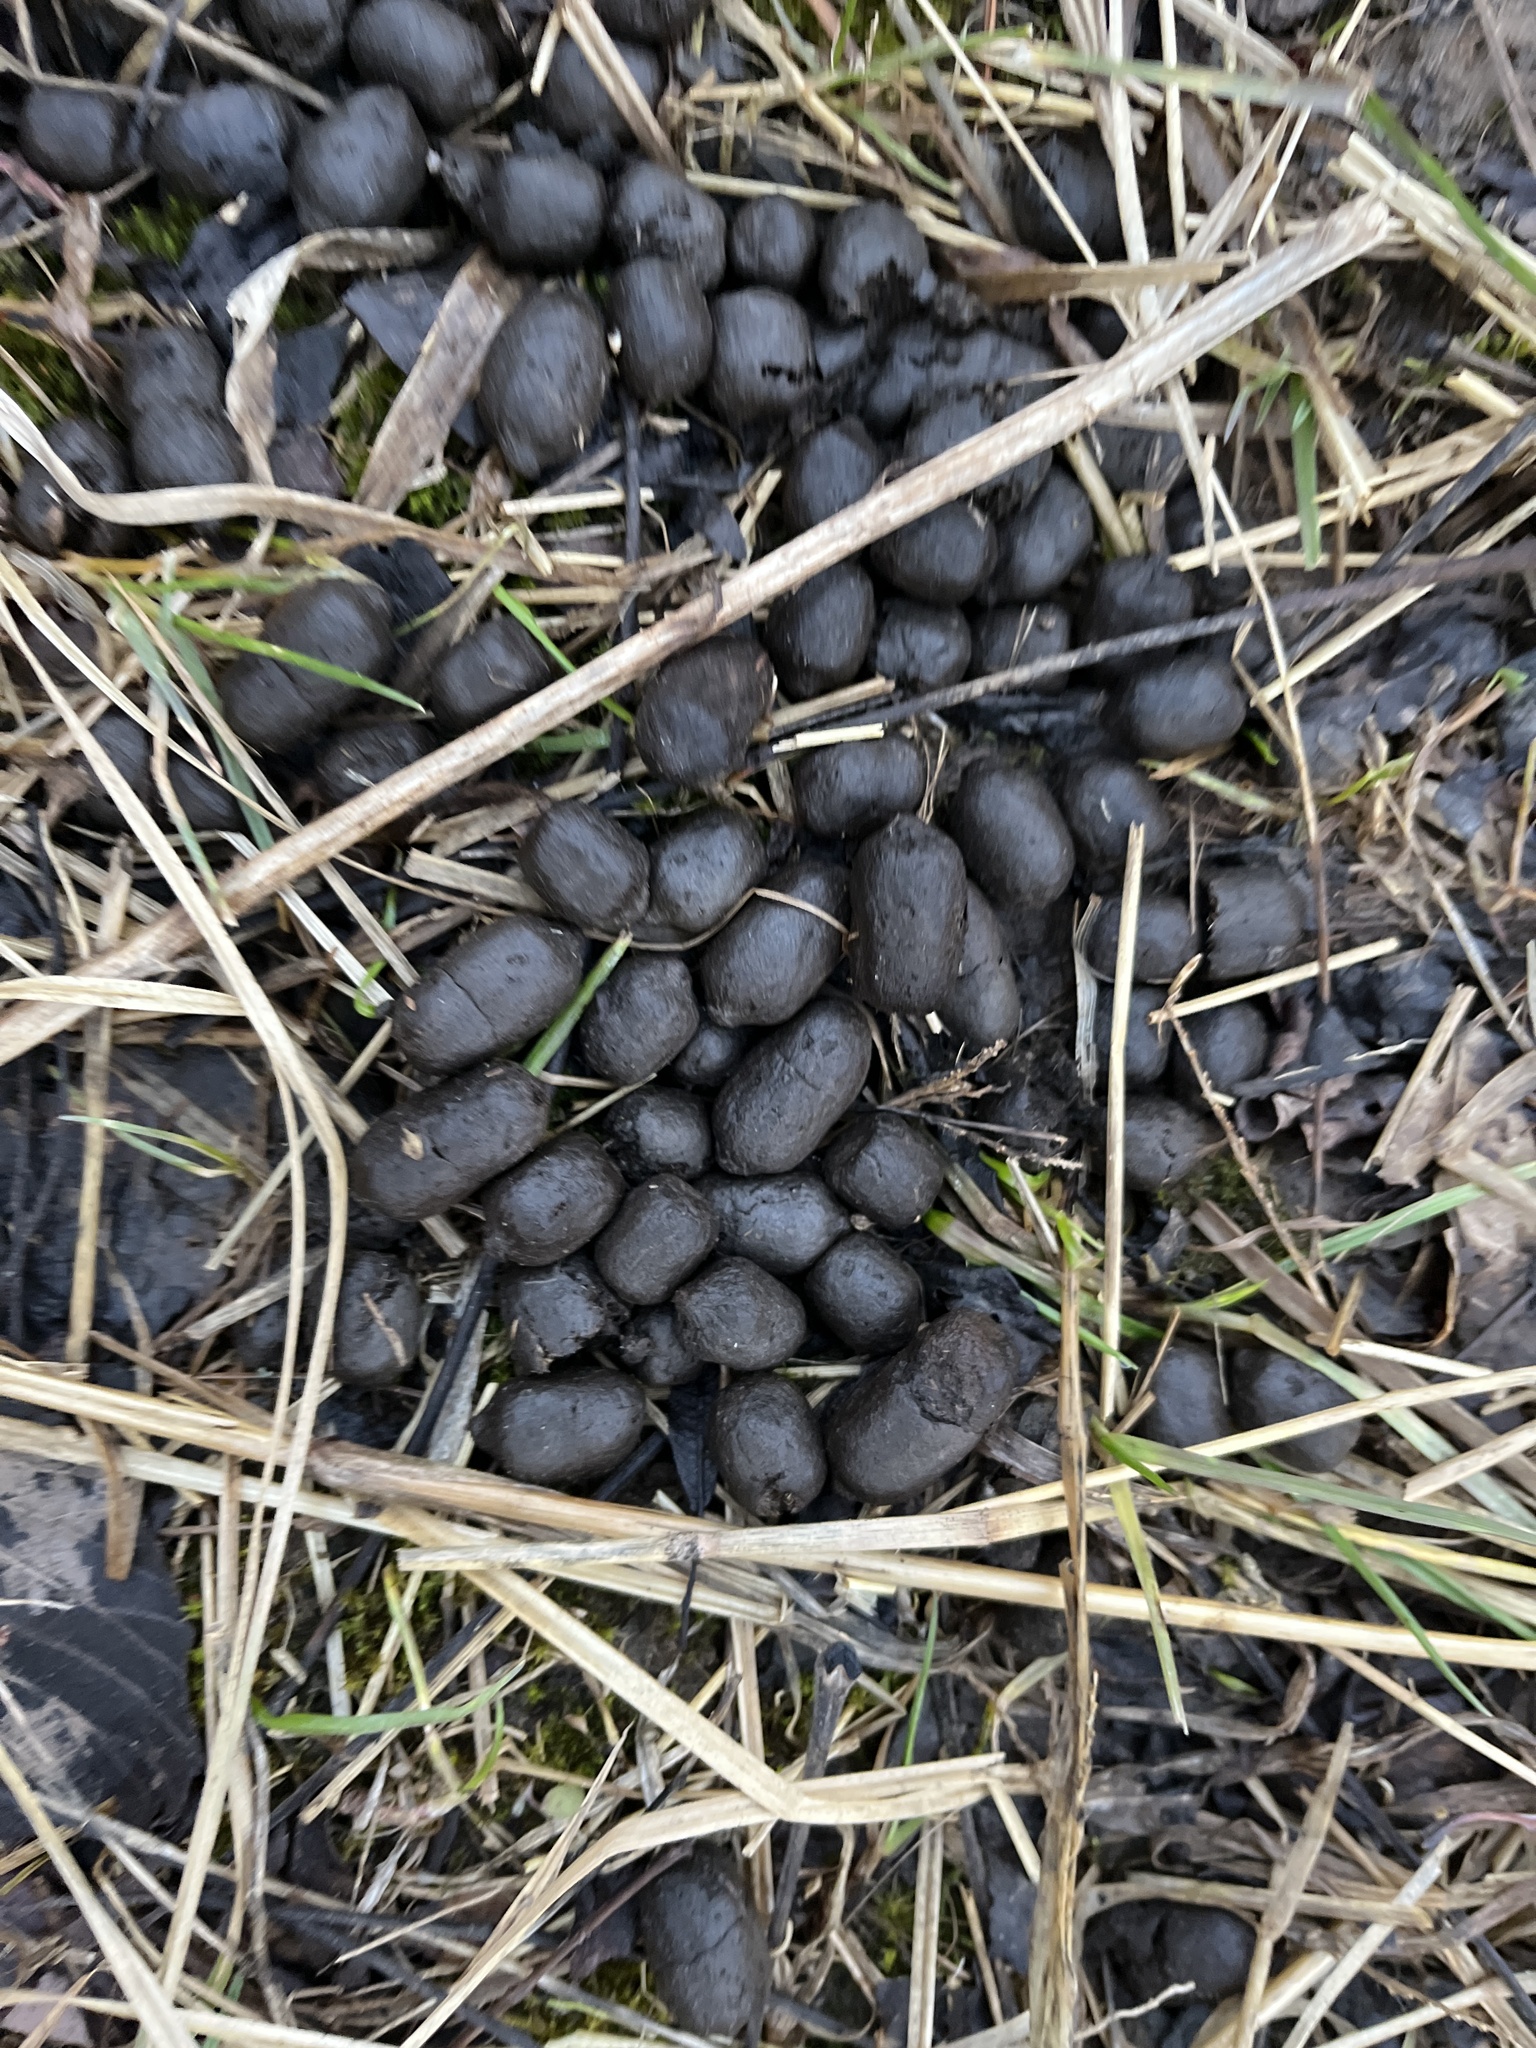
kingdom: Animalia
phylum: Chordata
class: Mammalia
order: Artiodactyla
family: Cervidae
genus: Odocoileus
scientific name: Odocoileus virginianus
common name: White-tailed deer
